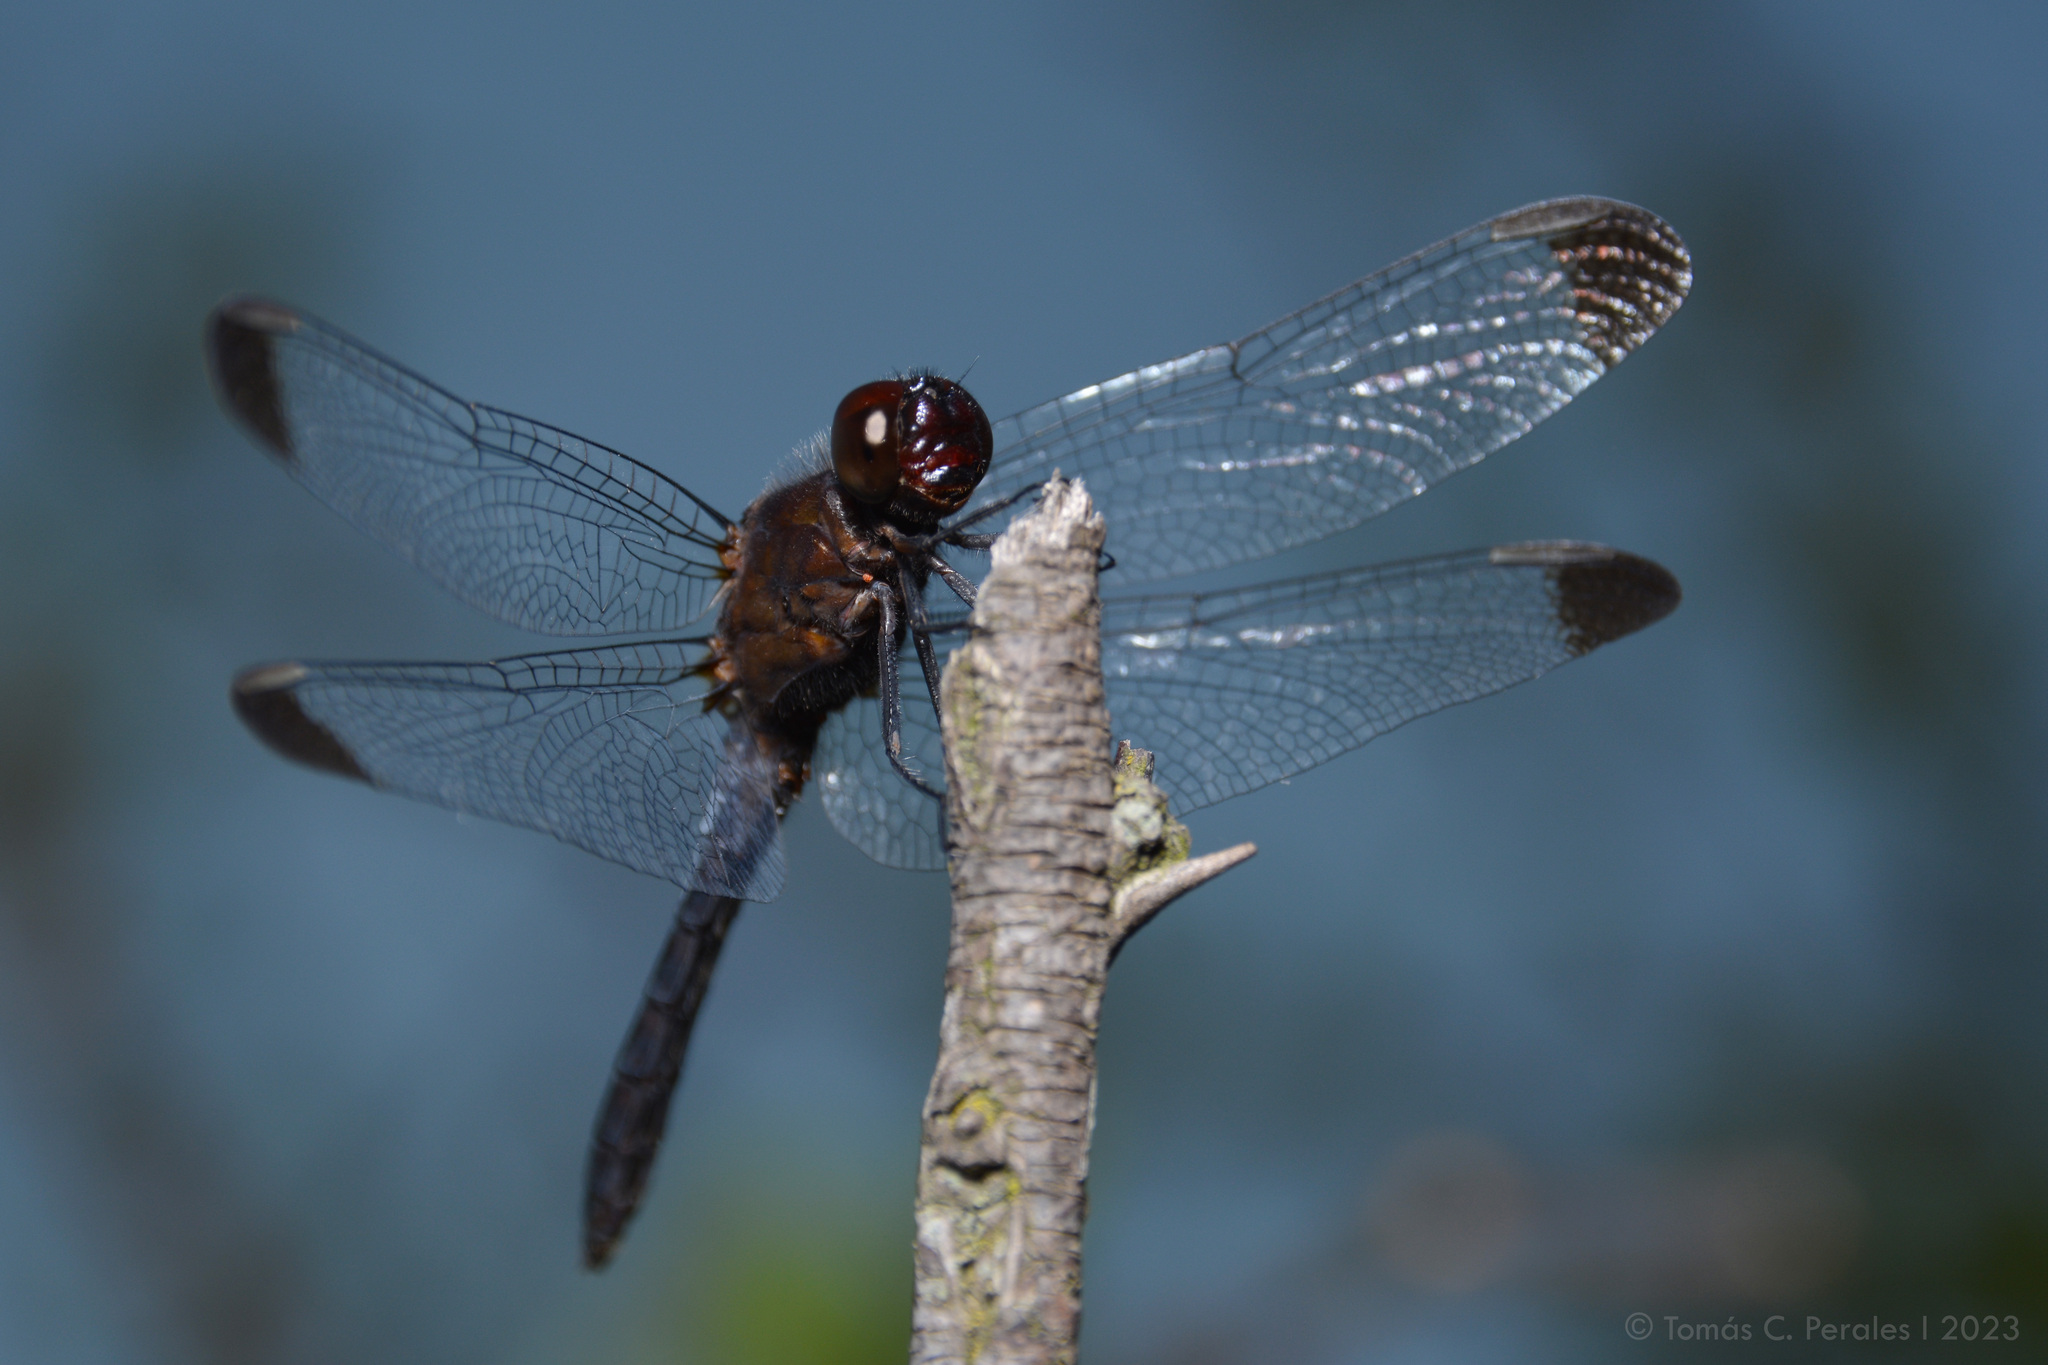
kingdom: Animalia
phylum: Arthropoda
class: Insecta
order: Odonata
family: Libellulidae
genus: Erythrodiplax
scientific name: Erythrodiplax atroterminata
